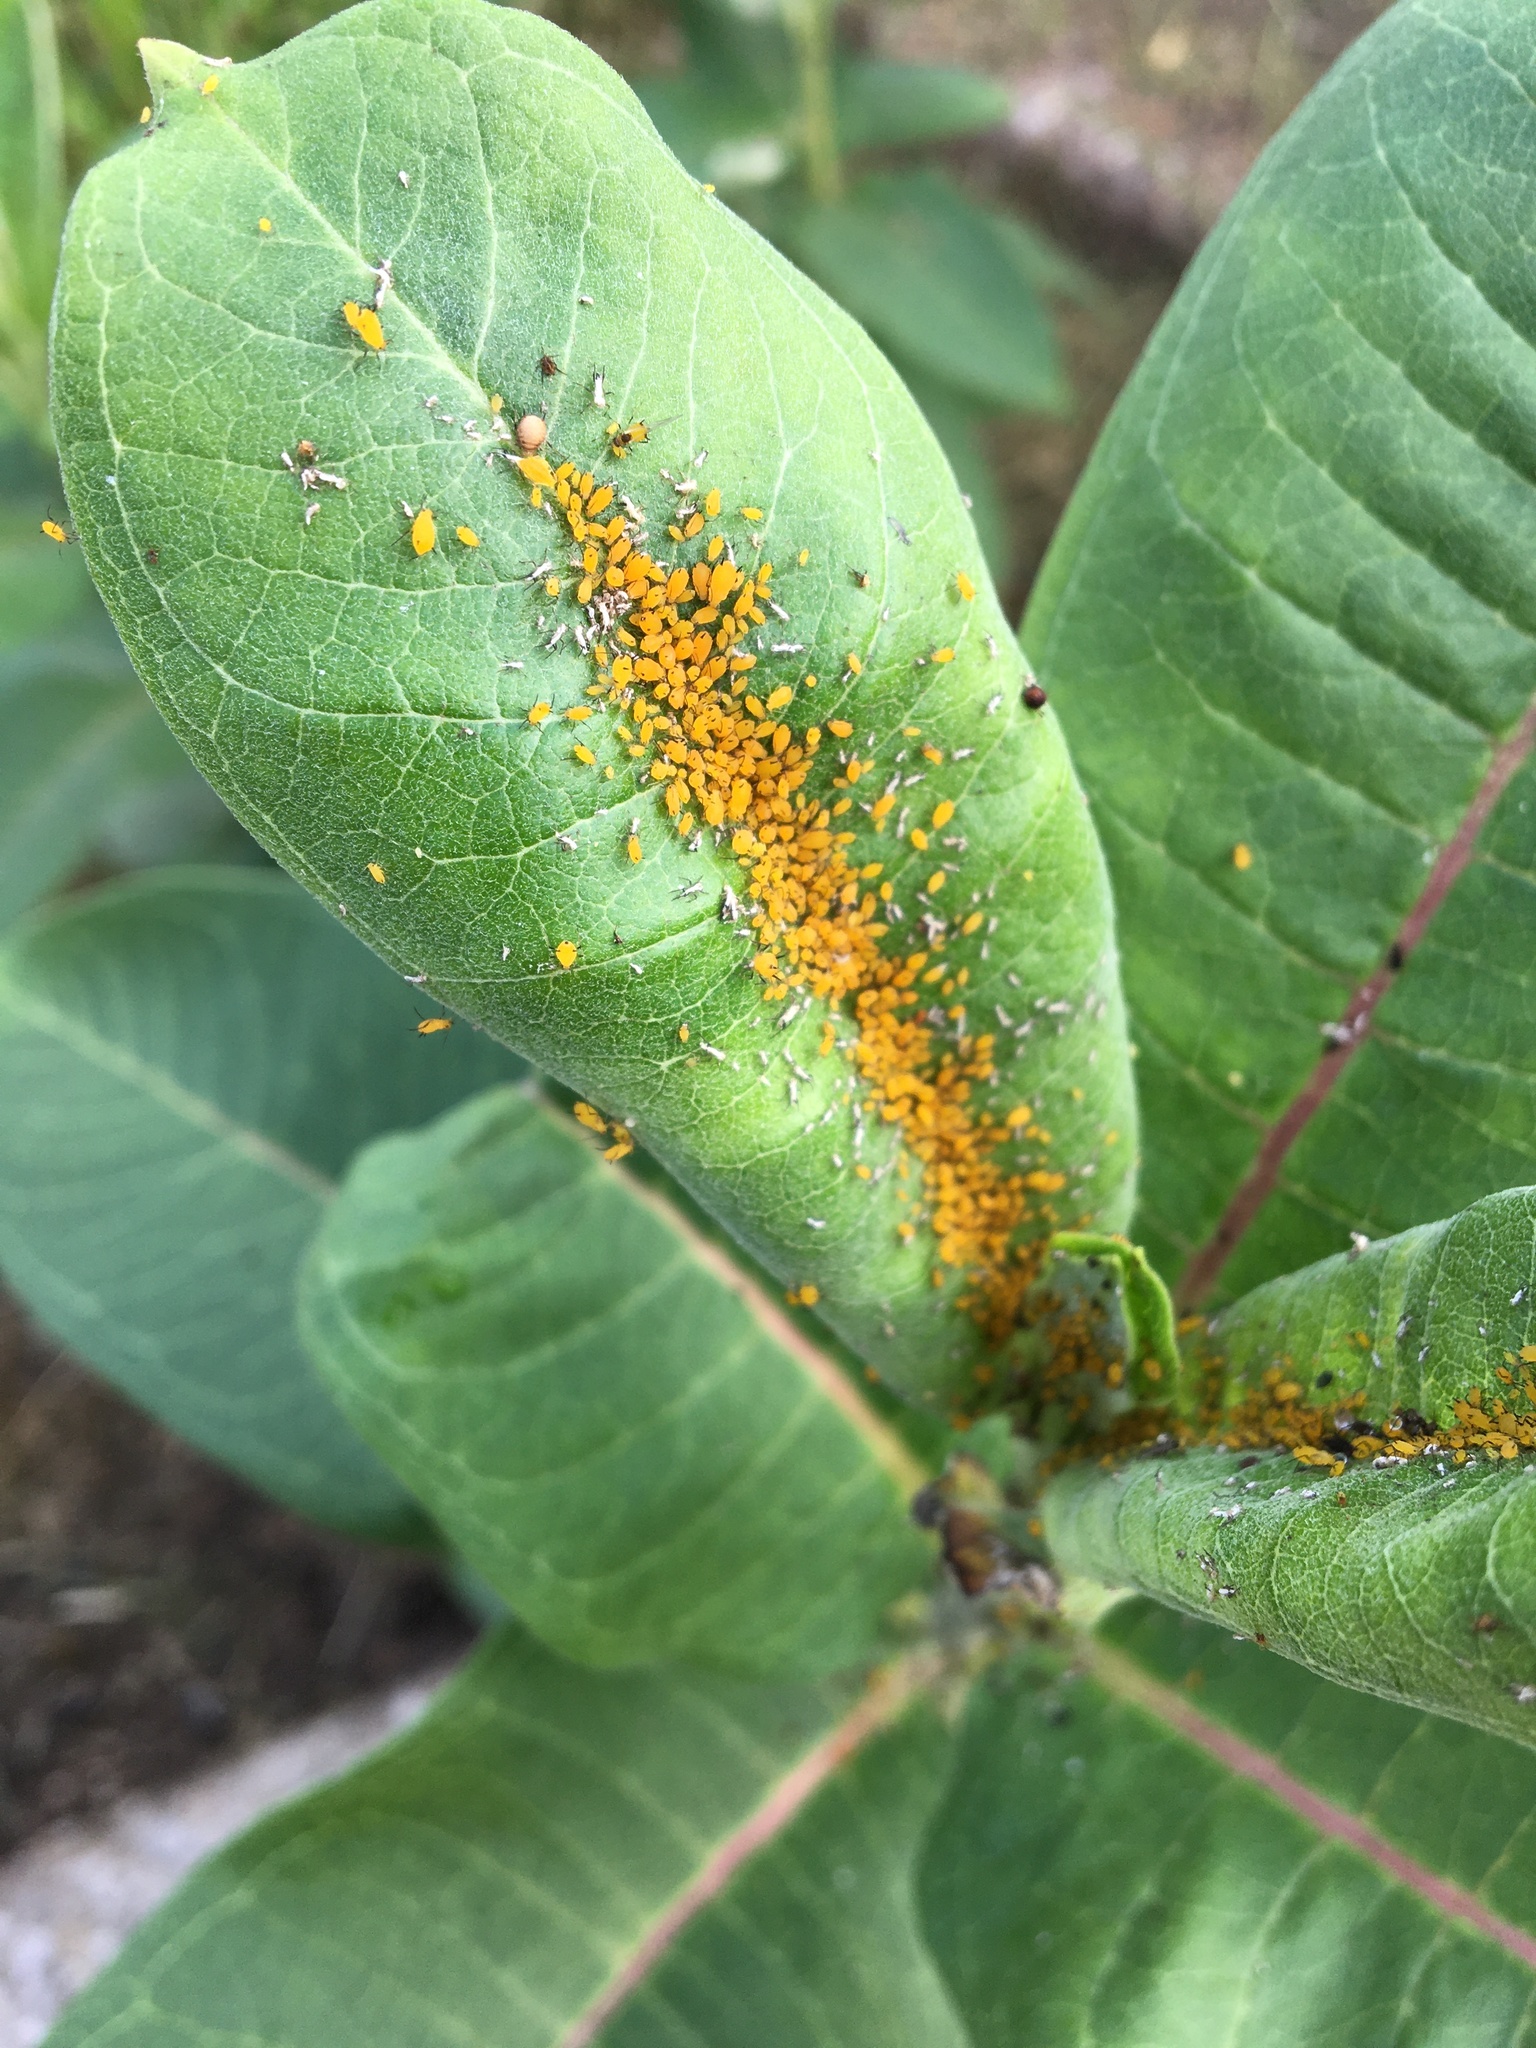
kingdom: Animalia
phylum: Arthropoda
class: Insecta
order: Hemiptera
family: Aphididae
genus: Aphis
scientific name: Aphis nerii
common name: Oleander aphid
